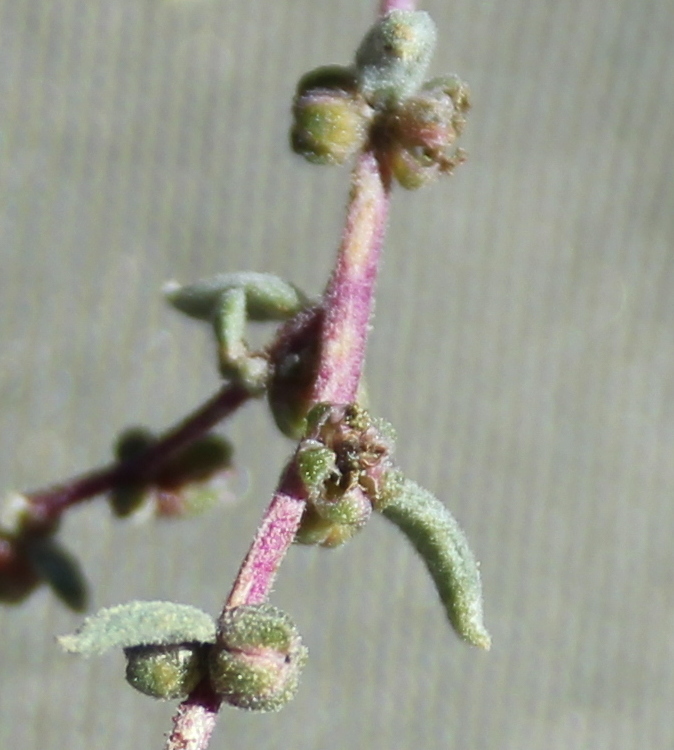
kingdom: Plantae
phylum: Tracheophyta
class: Magnoliopsida
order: Caryophyllales
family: Amaranthaceae
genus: Suaeda
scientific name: Suaeda nigra
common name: Bush seepweed
